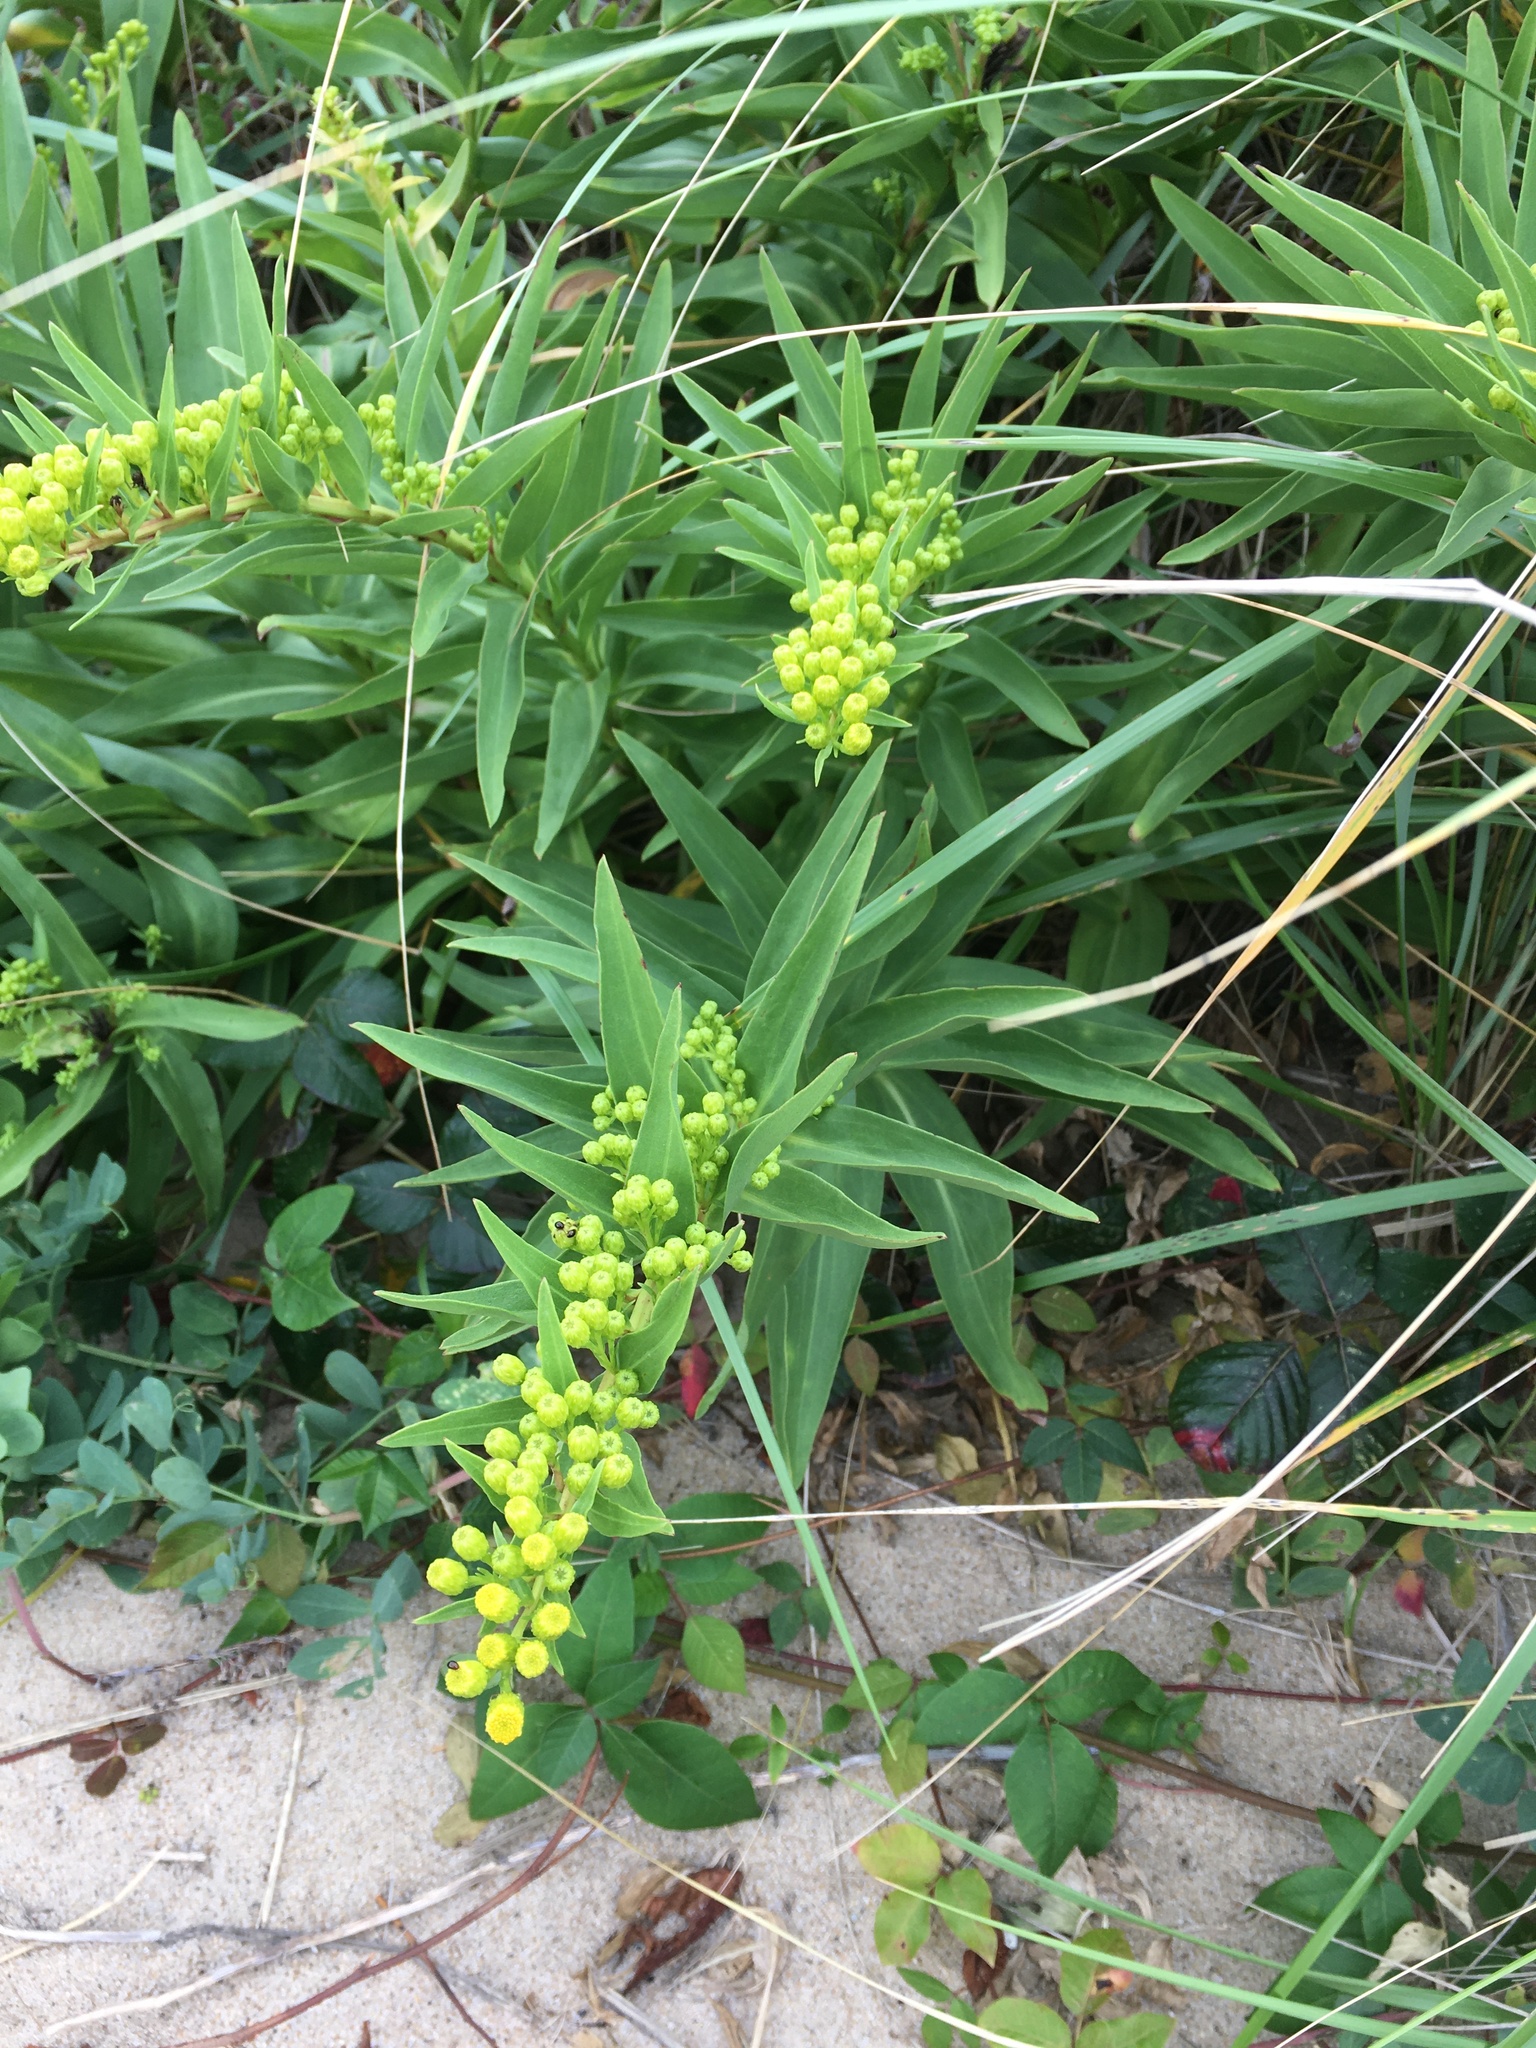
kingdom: Plantae
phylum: Tracheophyta
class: Magnoliopsida
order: Asterales
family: Asteraceae
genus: Solidago
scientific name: Solidago sempervirens
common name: Salt-marsh goldenrod
